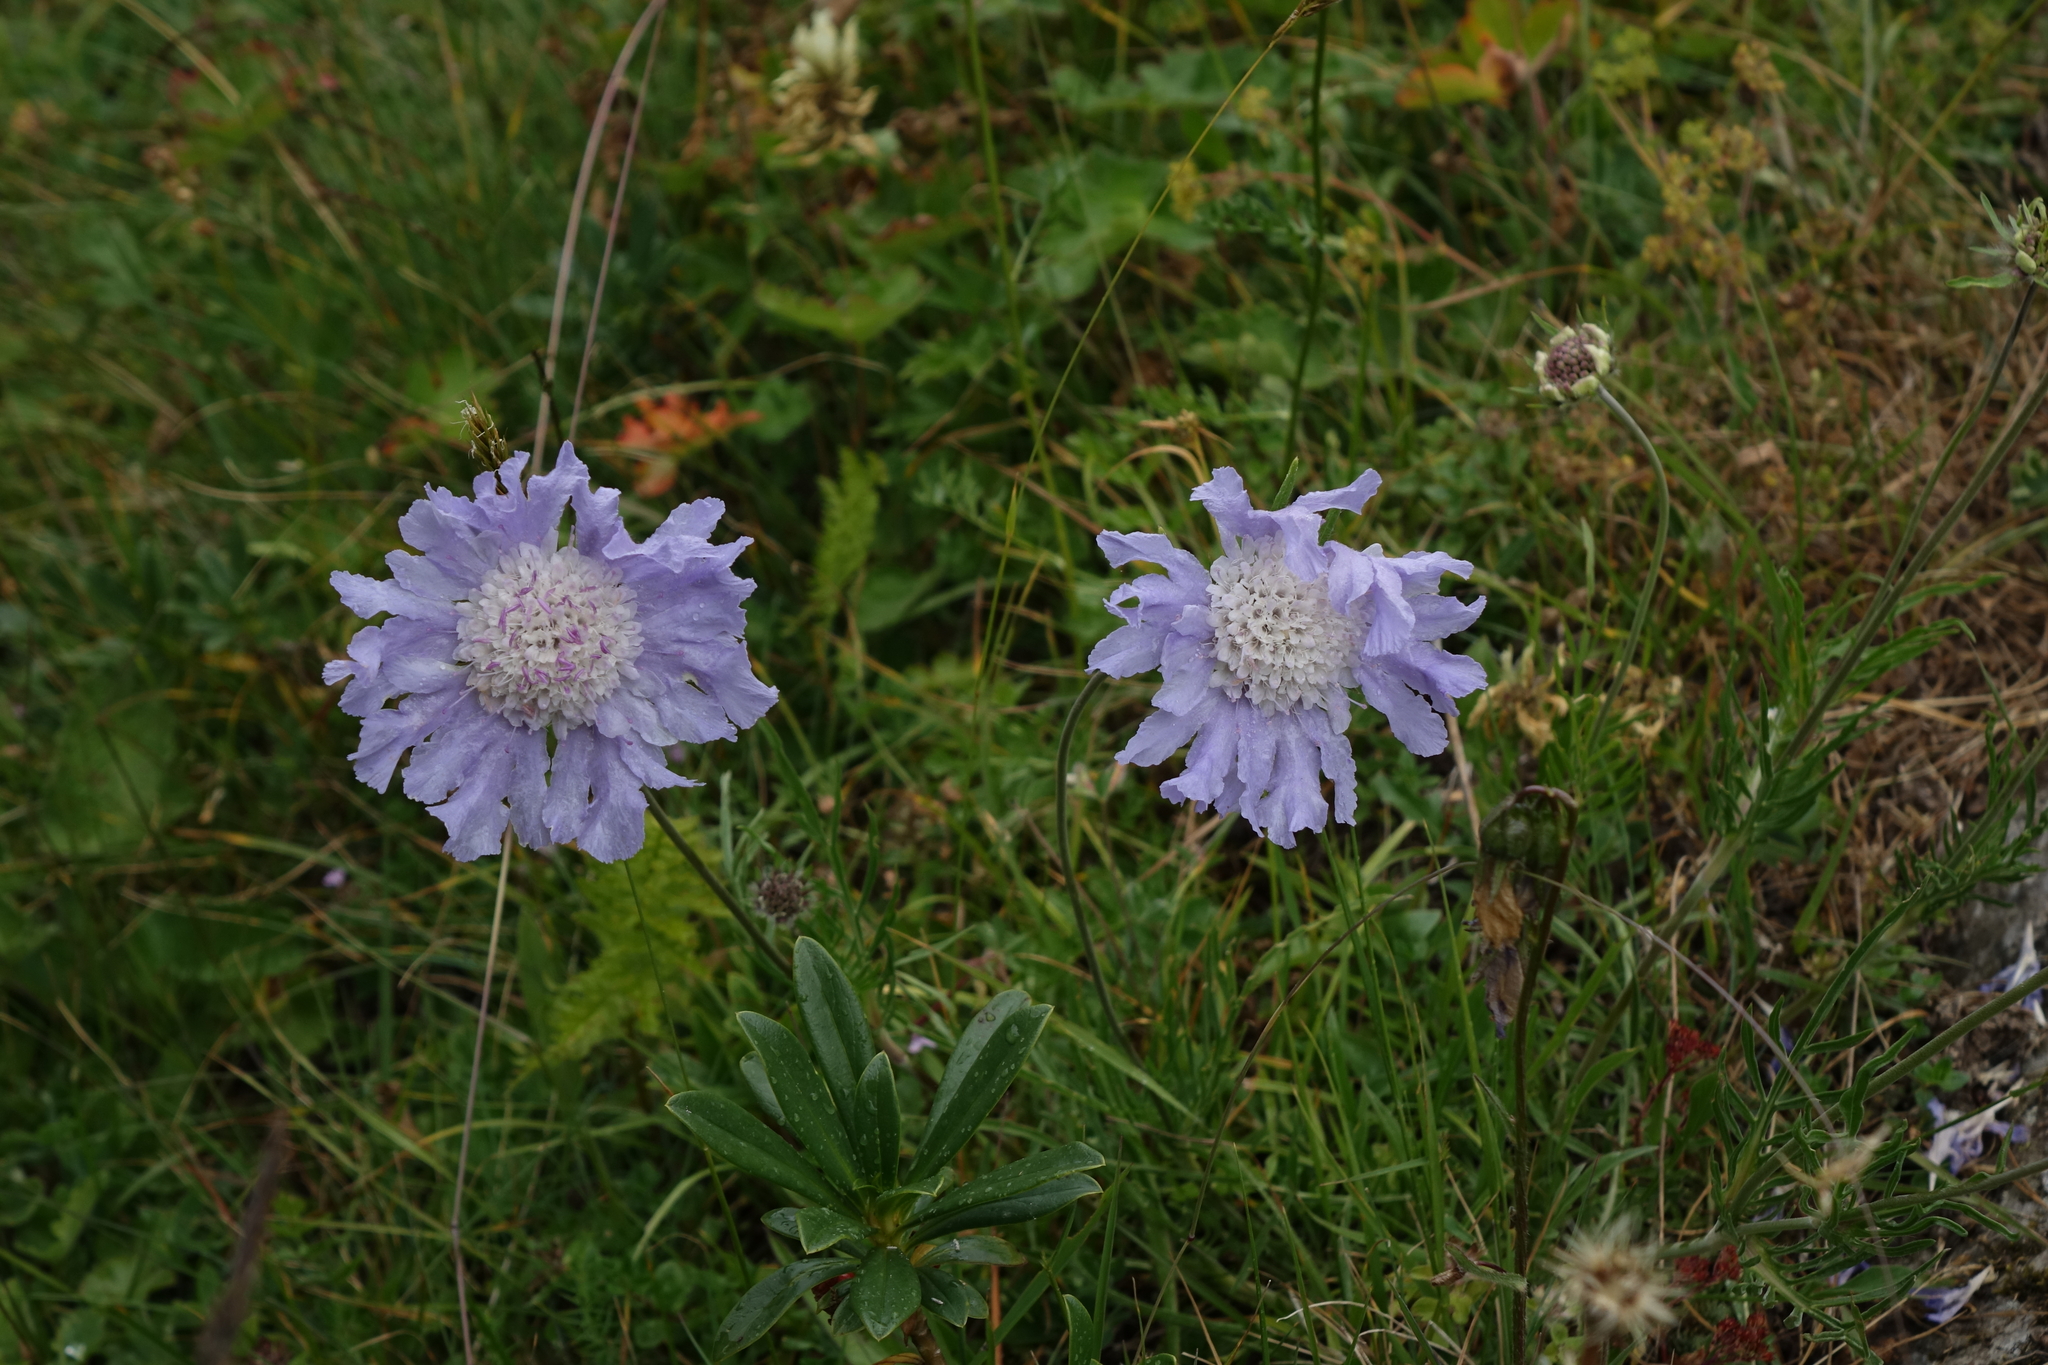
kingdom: Plantae
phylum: Tracheophyta
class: Magnoliopsida
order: Dipsacales
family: Caprifoliaceae
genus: Lomelosia
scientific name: Lomelosia caucasica
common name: Pincushion-flower
